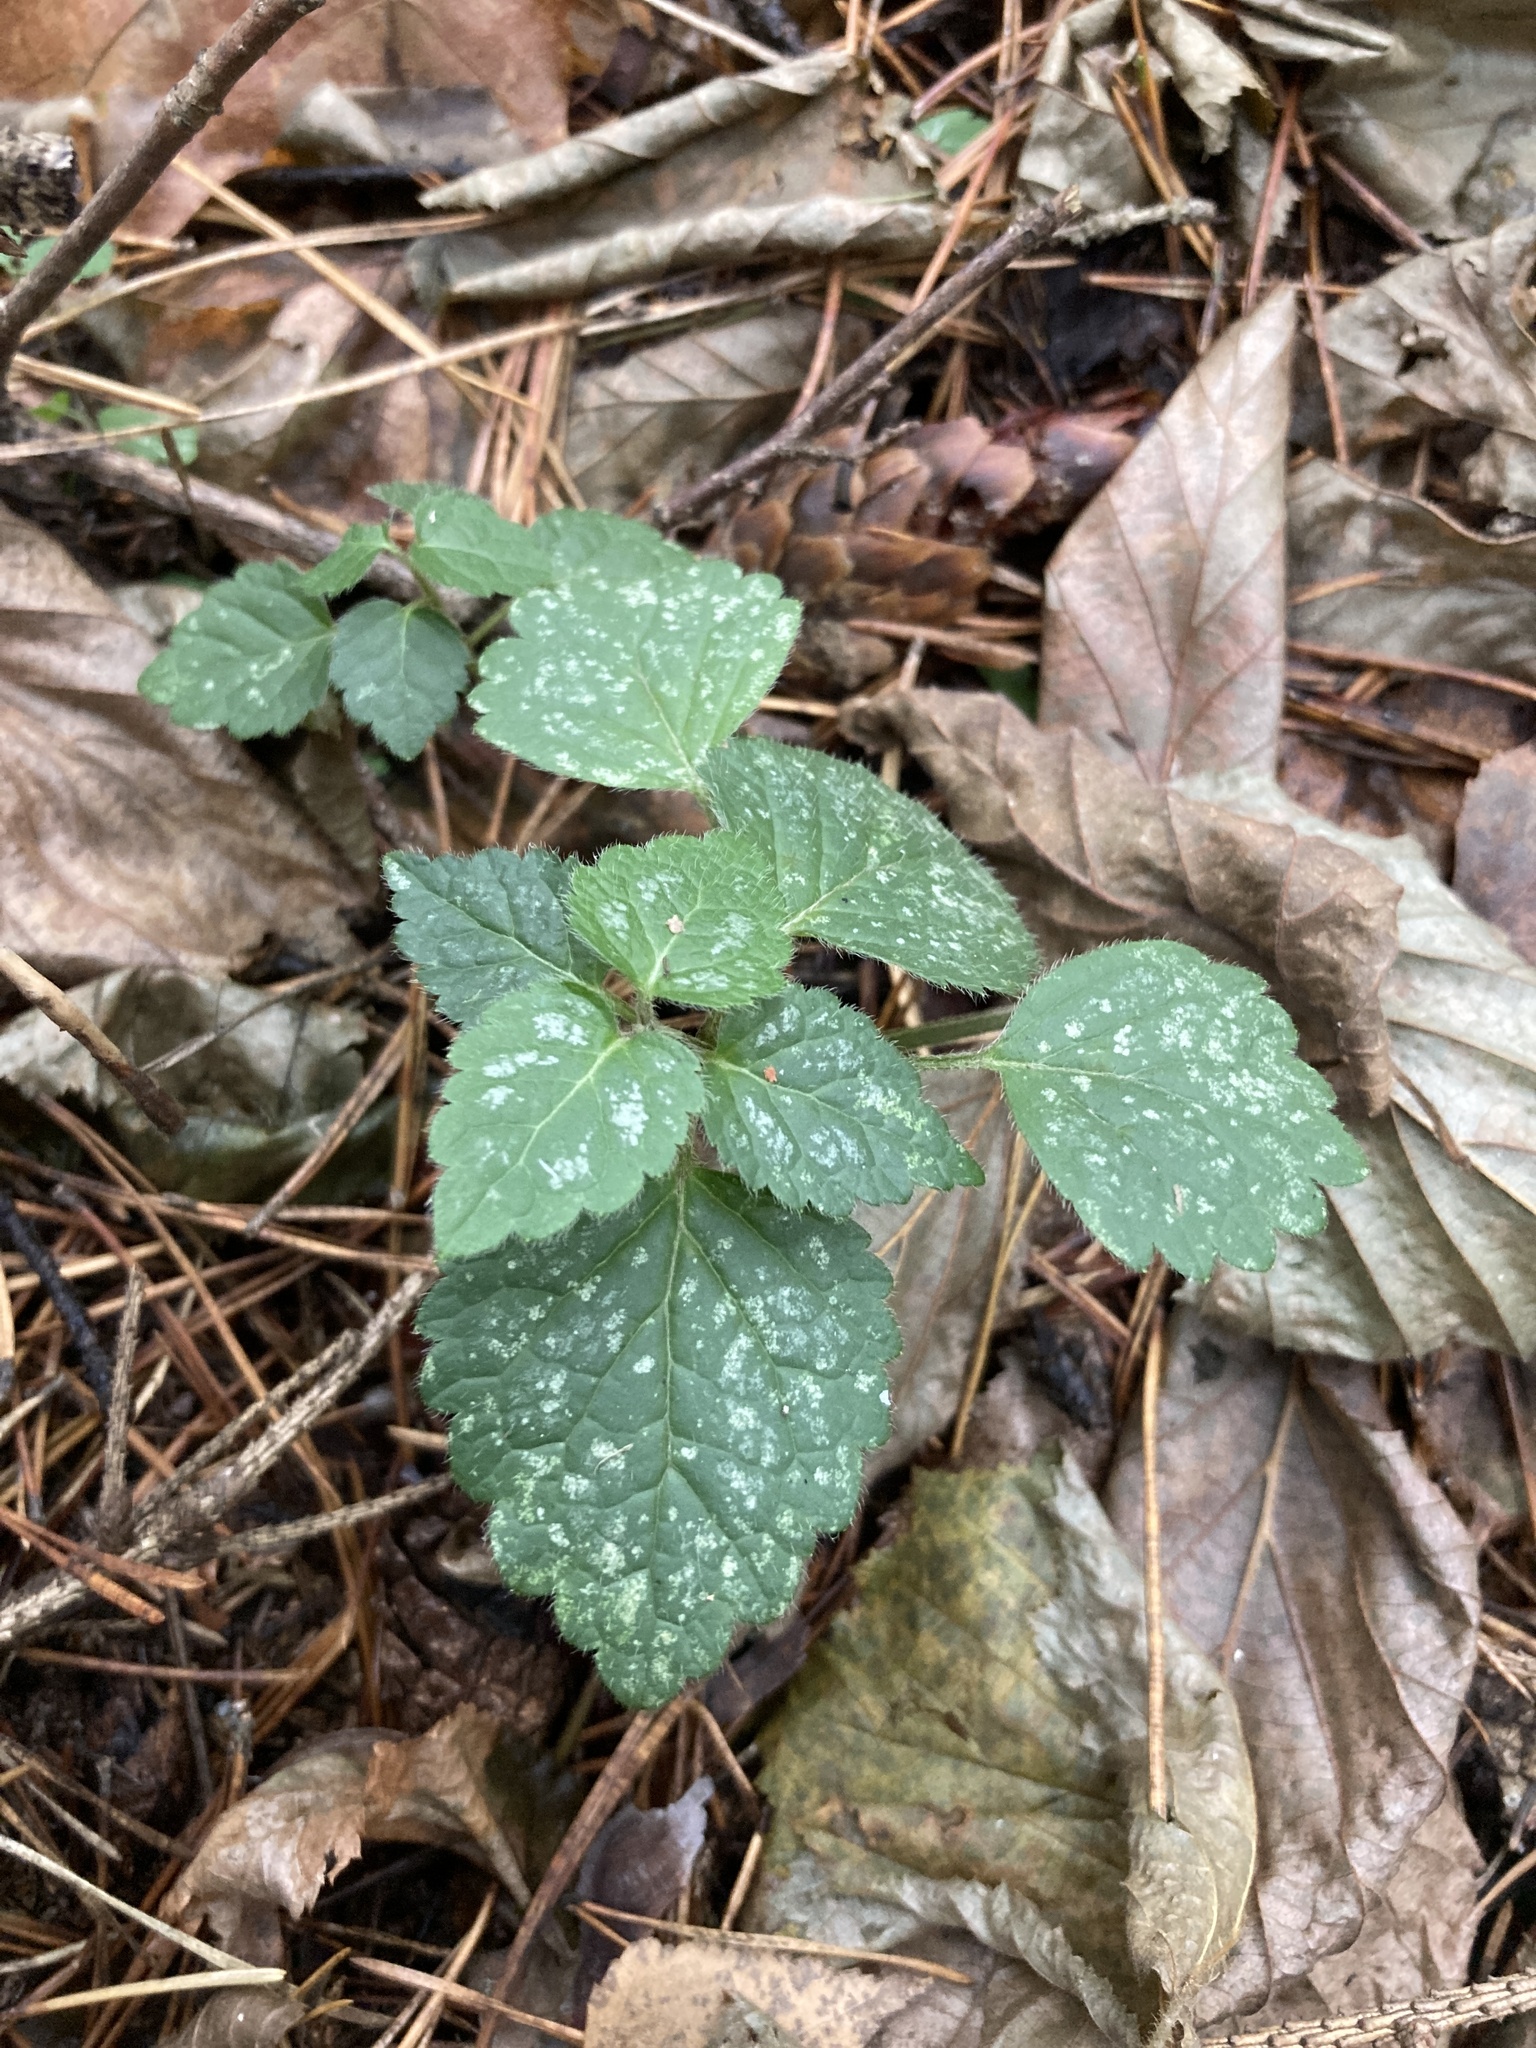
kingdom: Plantae
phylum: Tracheophyta
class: Magnoliopsida
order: Lamiales
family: Lamiaceae
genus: Lamium
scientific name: Lamium galeobdolon
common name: Yellow archangel
